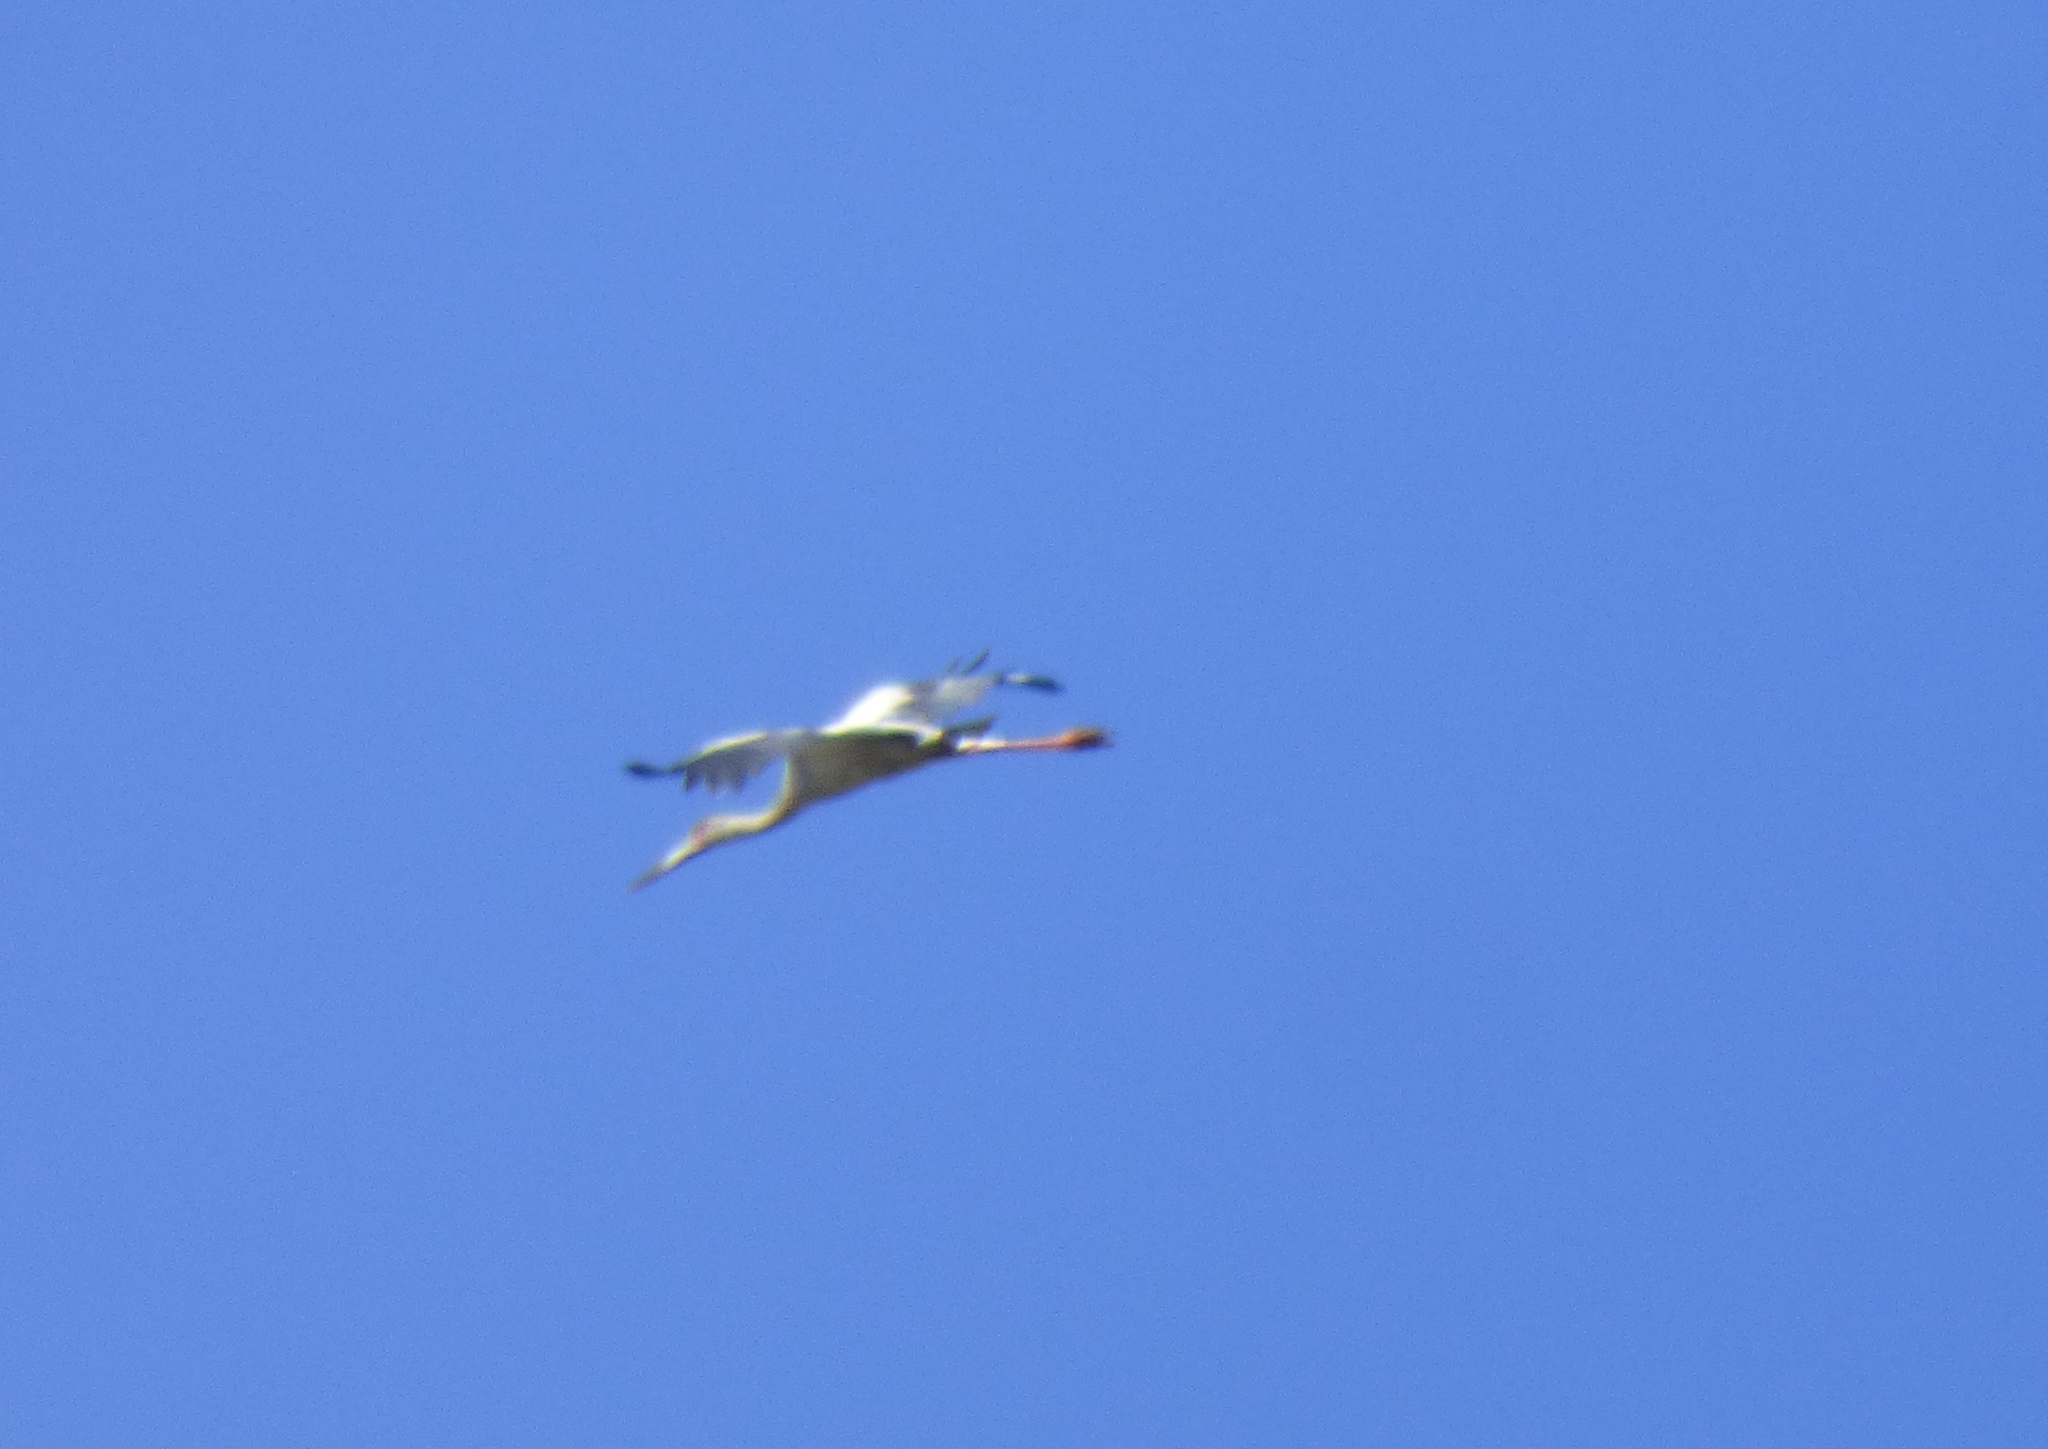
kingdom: Animalia
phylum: Chordata
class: Aves
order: Ciconiiformes
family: Ciconiidae
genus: Ciconia
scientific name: Ciconia maguari
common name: Maguari stork
